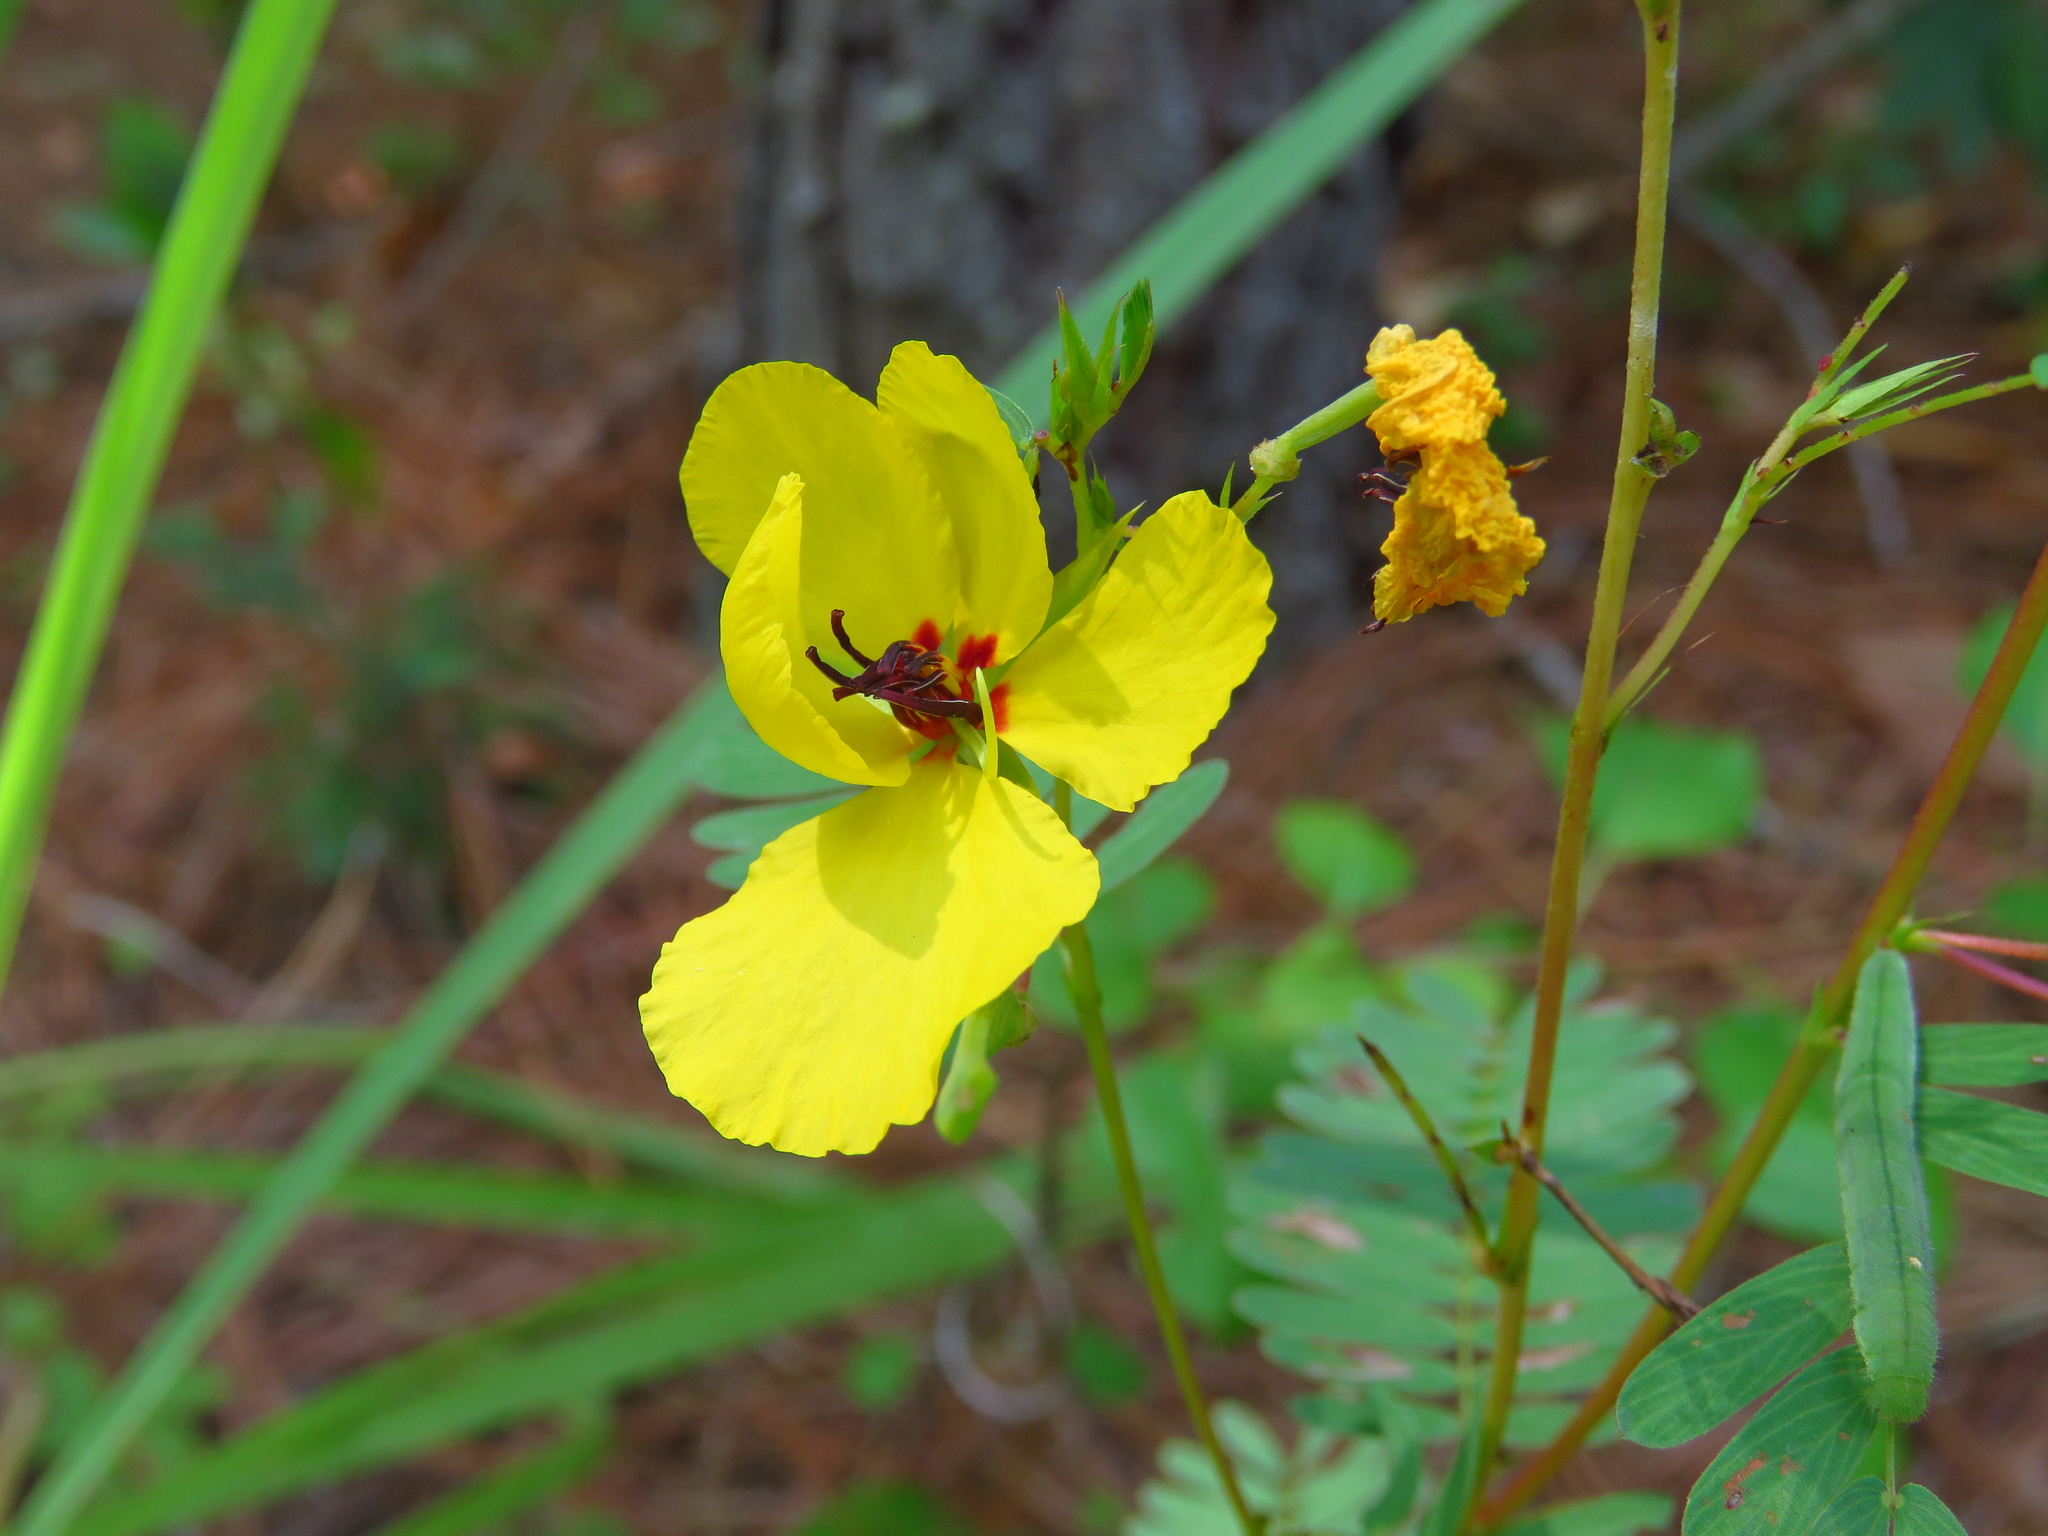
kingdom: Plantae
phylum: Tracheophyta
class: Magnoliopsida
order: Fabales
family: Fabaceae
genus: Chamaecrista
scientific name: Chamaecrista fasciculata
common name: Golden cassia
